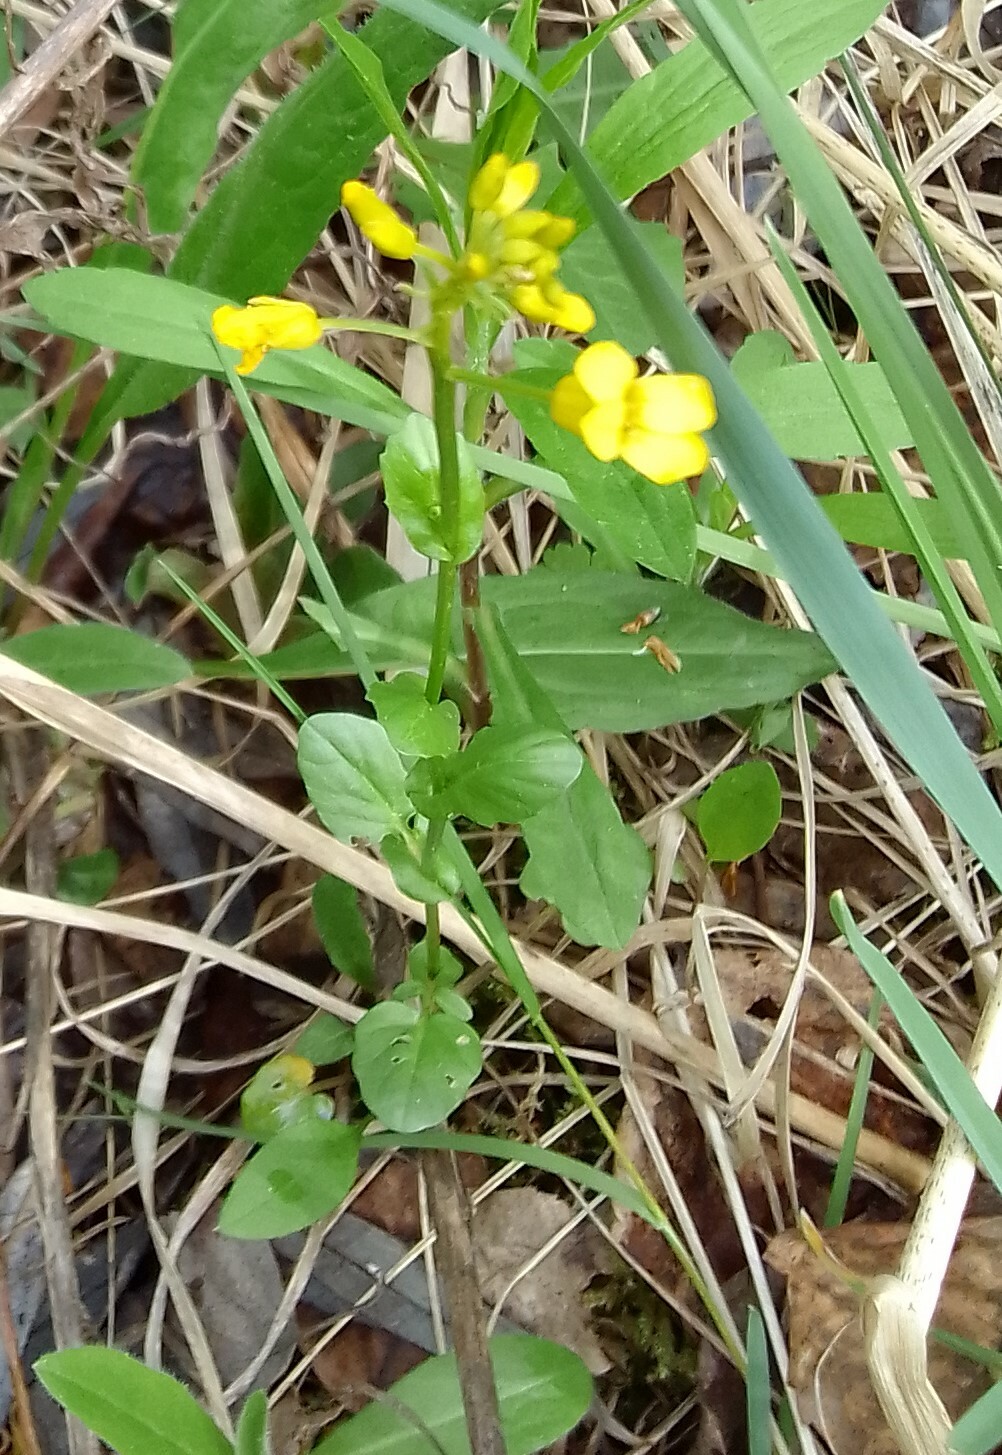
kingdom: Plantae
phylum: Tracheophyta
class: Magnoliopsida
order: Brassicales
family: Brassicaceae
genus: Barbarea
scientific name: Barbarea vulgaris
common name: Cressy-greens
